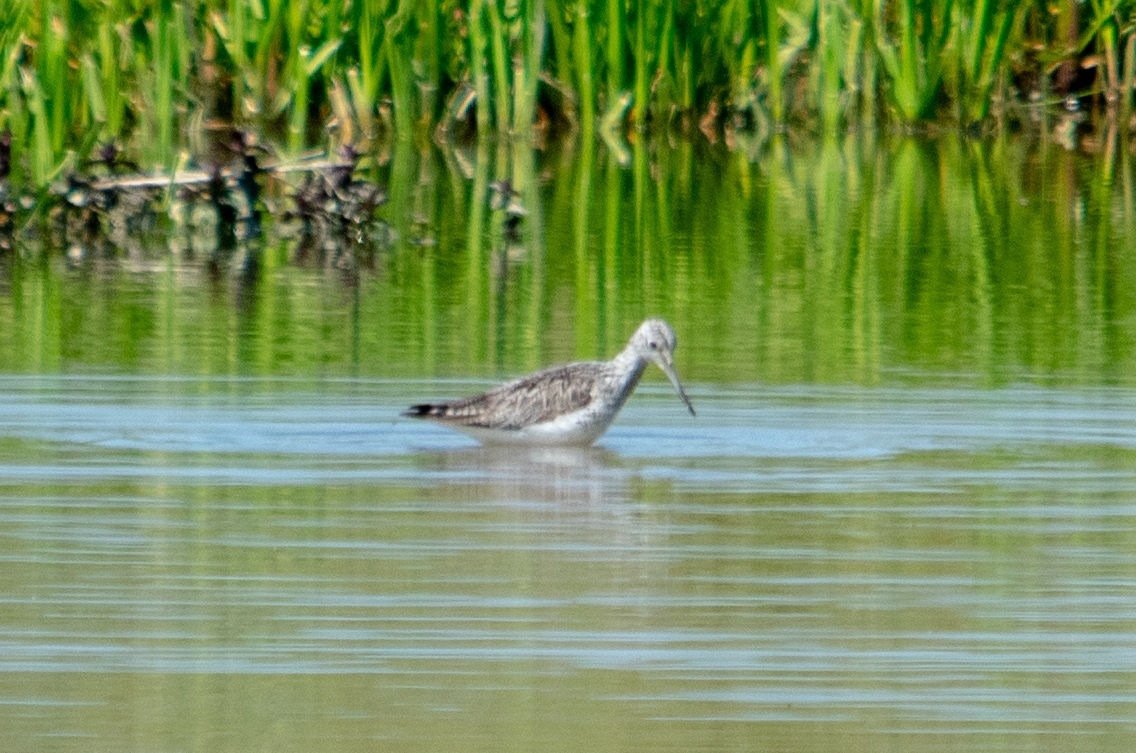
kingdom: Animalia
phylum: Chordata
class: Aves
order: Charadriiformes
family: Scolopacidae
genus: Tringa
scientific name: Tringa nebularia
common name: Common greenshank
